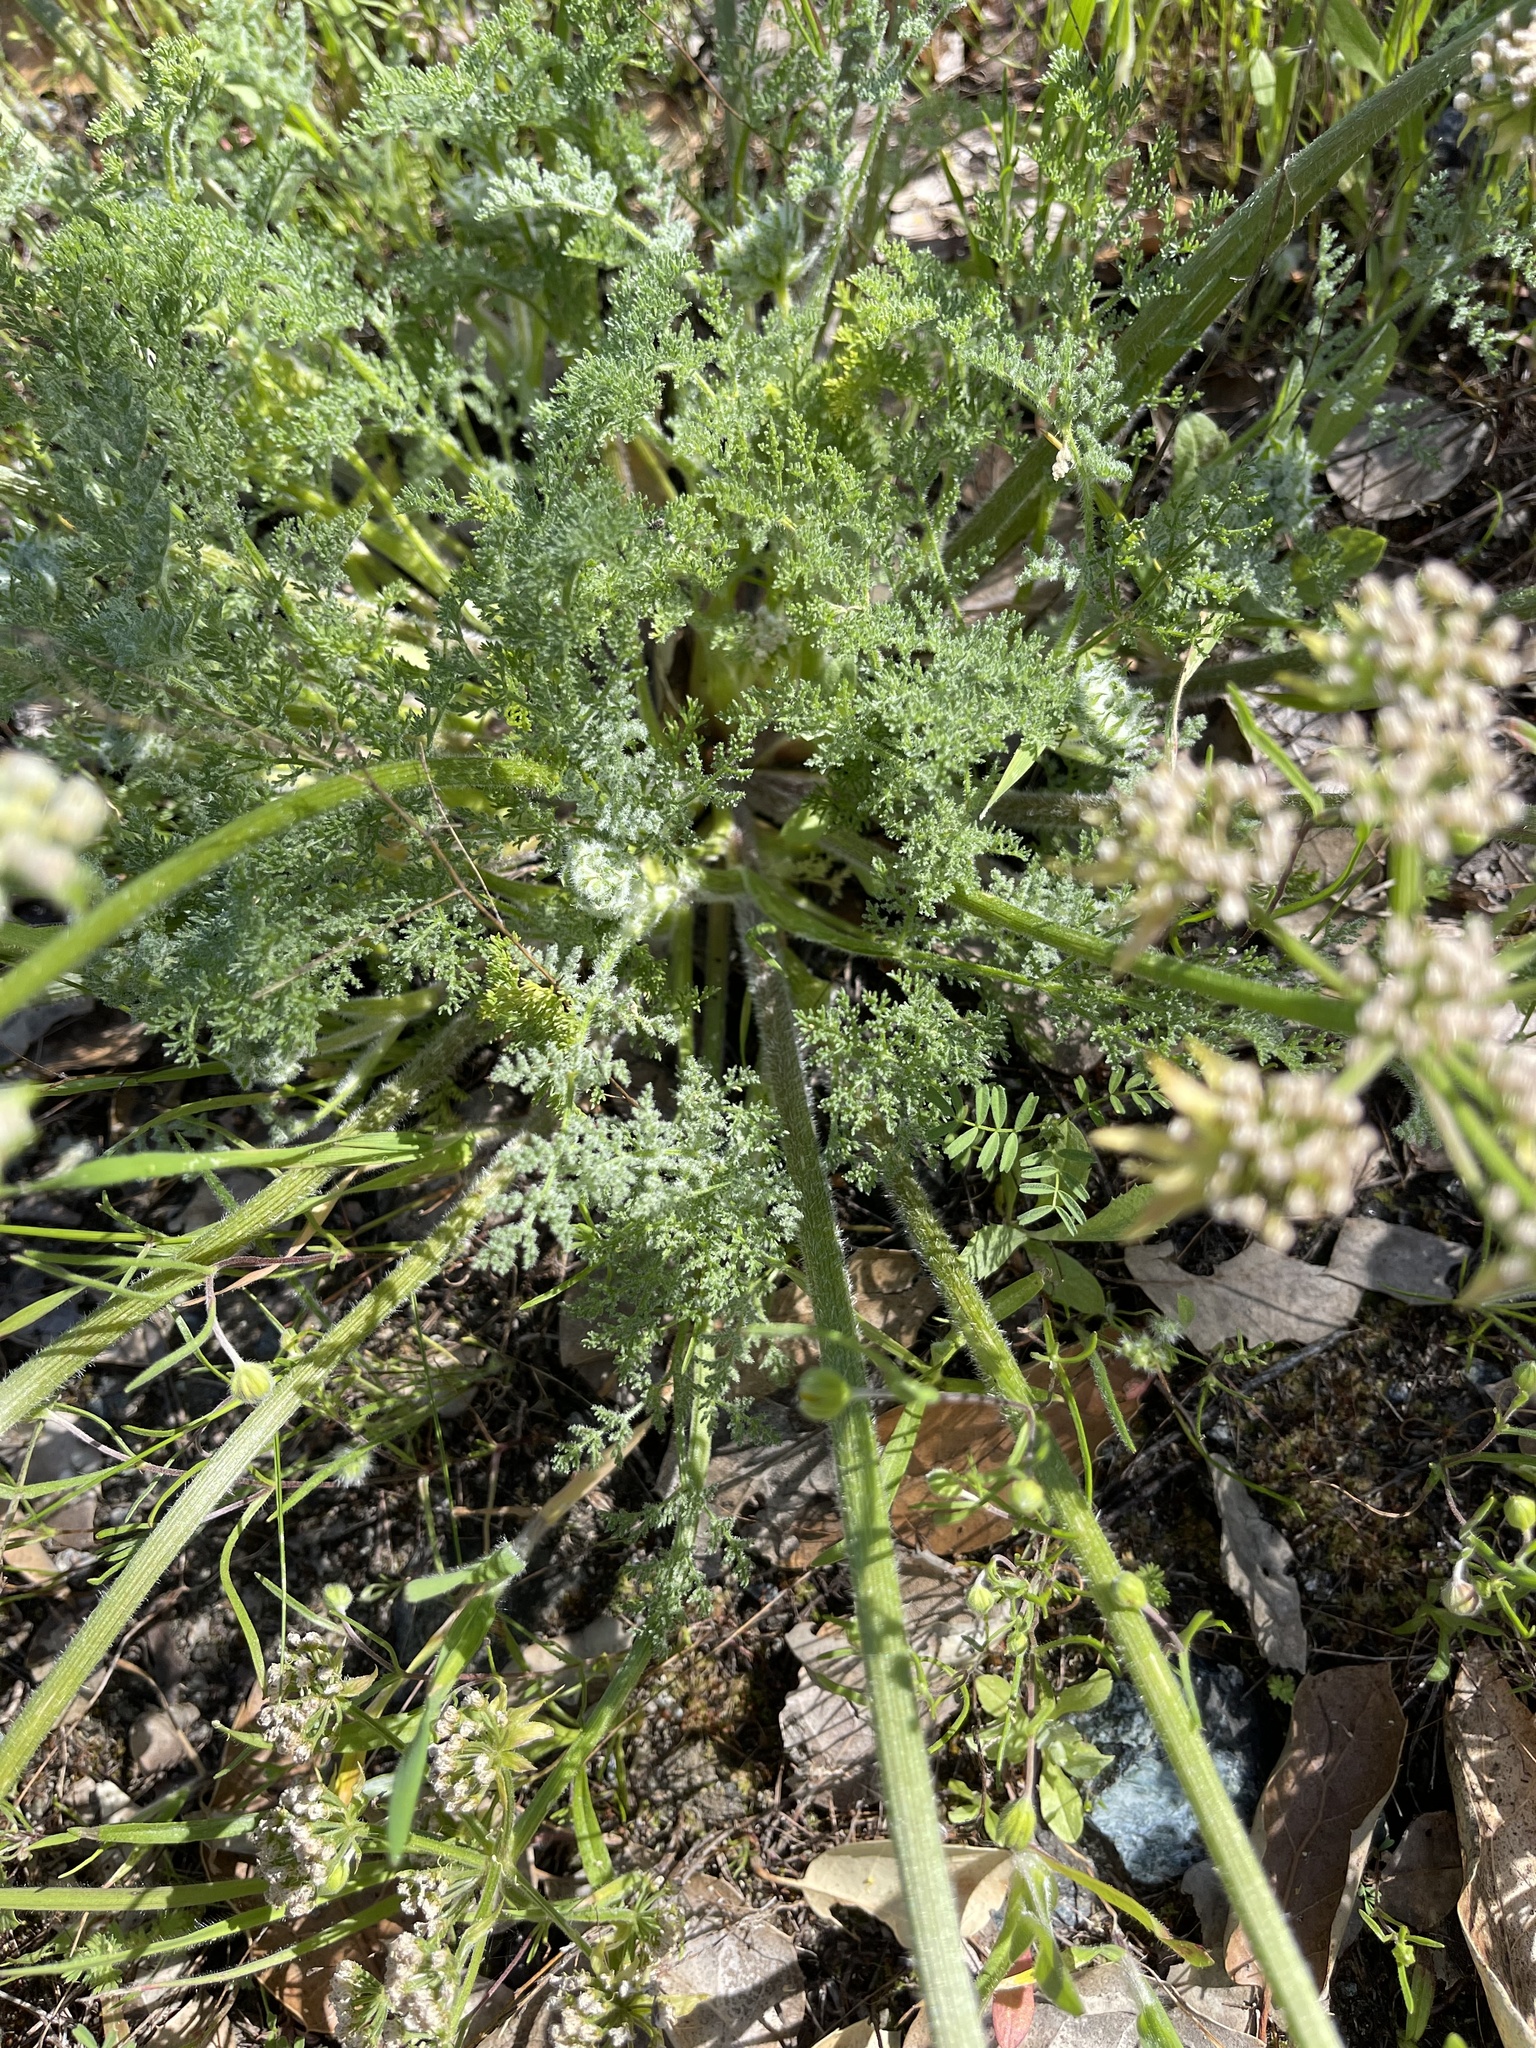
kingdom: Plantae
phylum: Tracheophyta
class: Magnoliopsida
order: Apiales
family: Apiaceae
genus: Lomatium
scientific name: Lomatium dasycarpum
